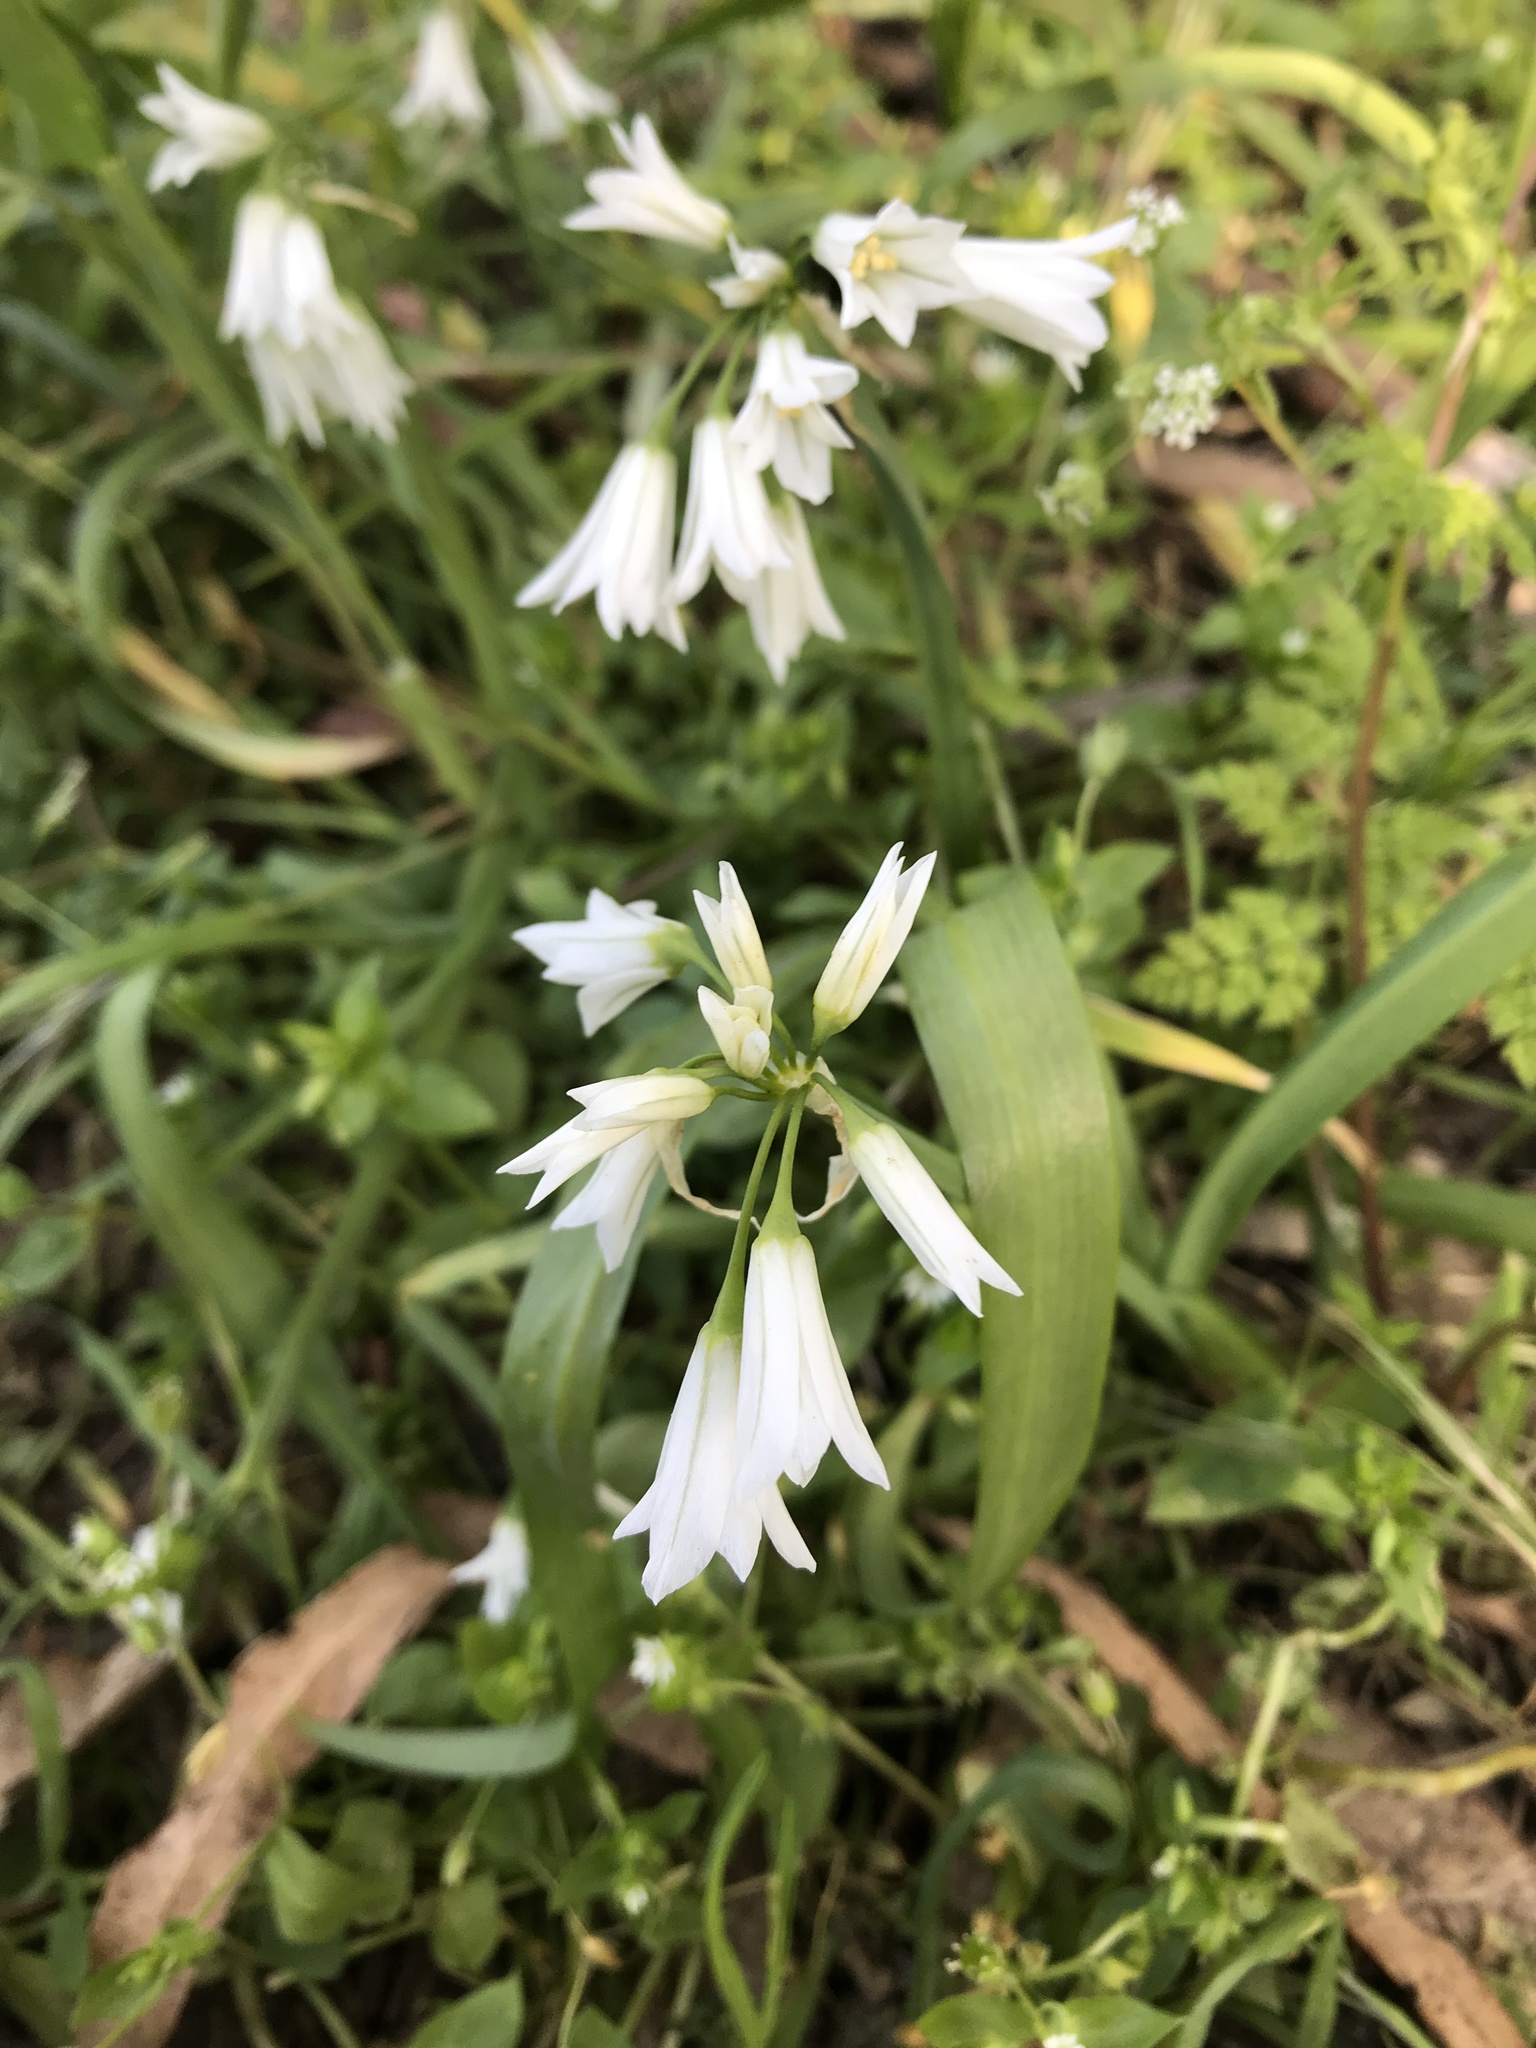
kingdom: Plantae
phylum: Tracheophyta
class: Liliopsida
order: Asparagales
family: Amaryllidaceae
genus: Allium
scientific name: Allium triquetrum
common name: Three-cornered garlic
